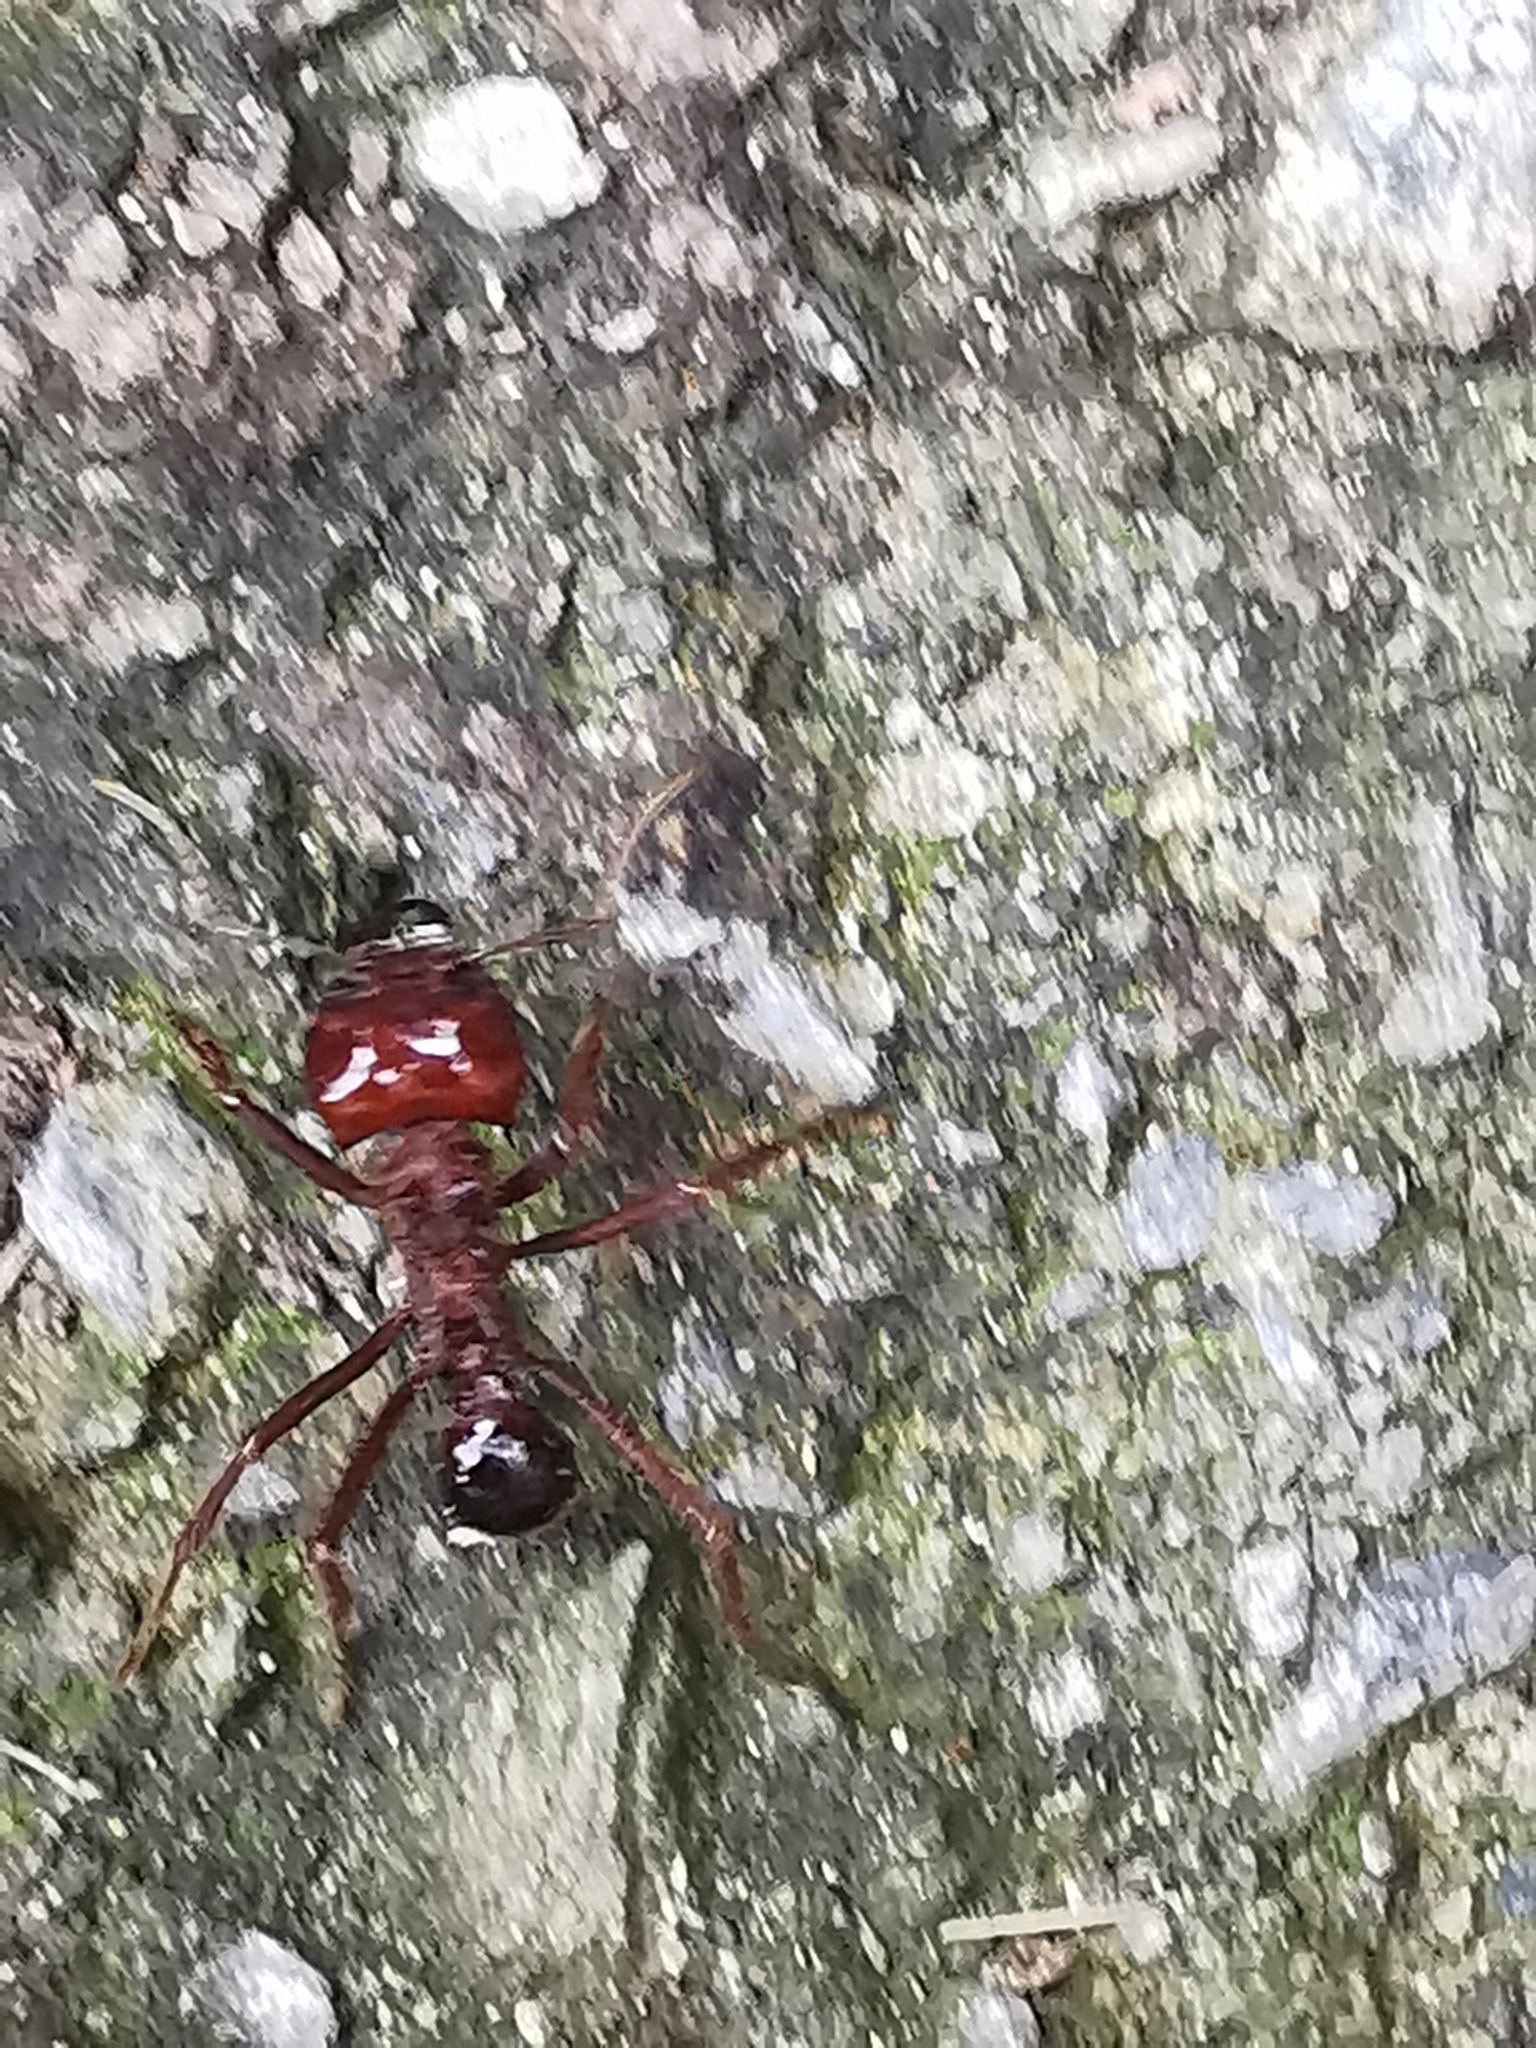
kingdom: Animalia
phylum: Arthropoda
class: Insecta
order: Hymenoptera
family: Formicidae
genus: Atta
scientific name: Atta mexicana
